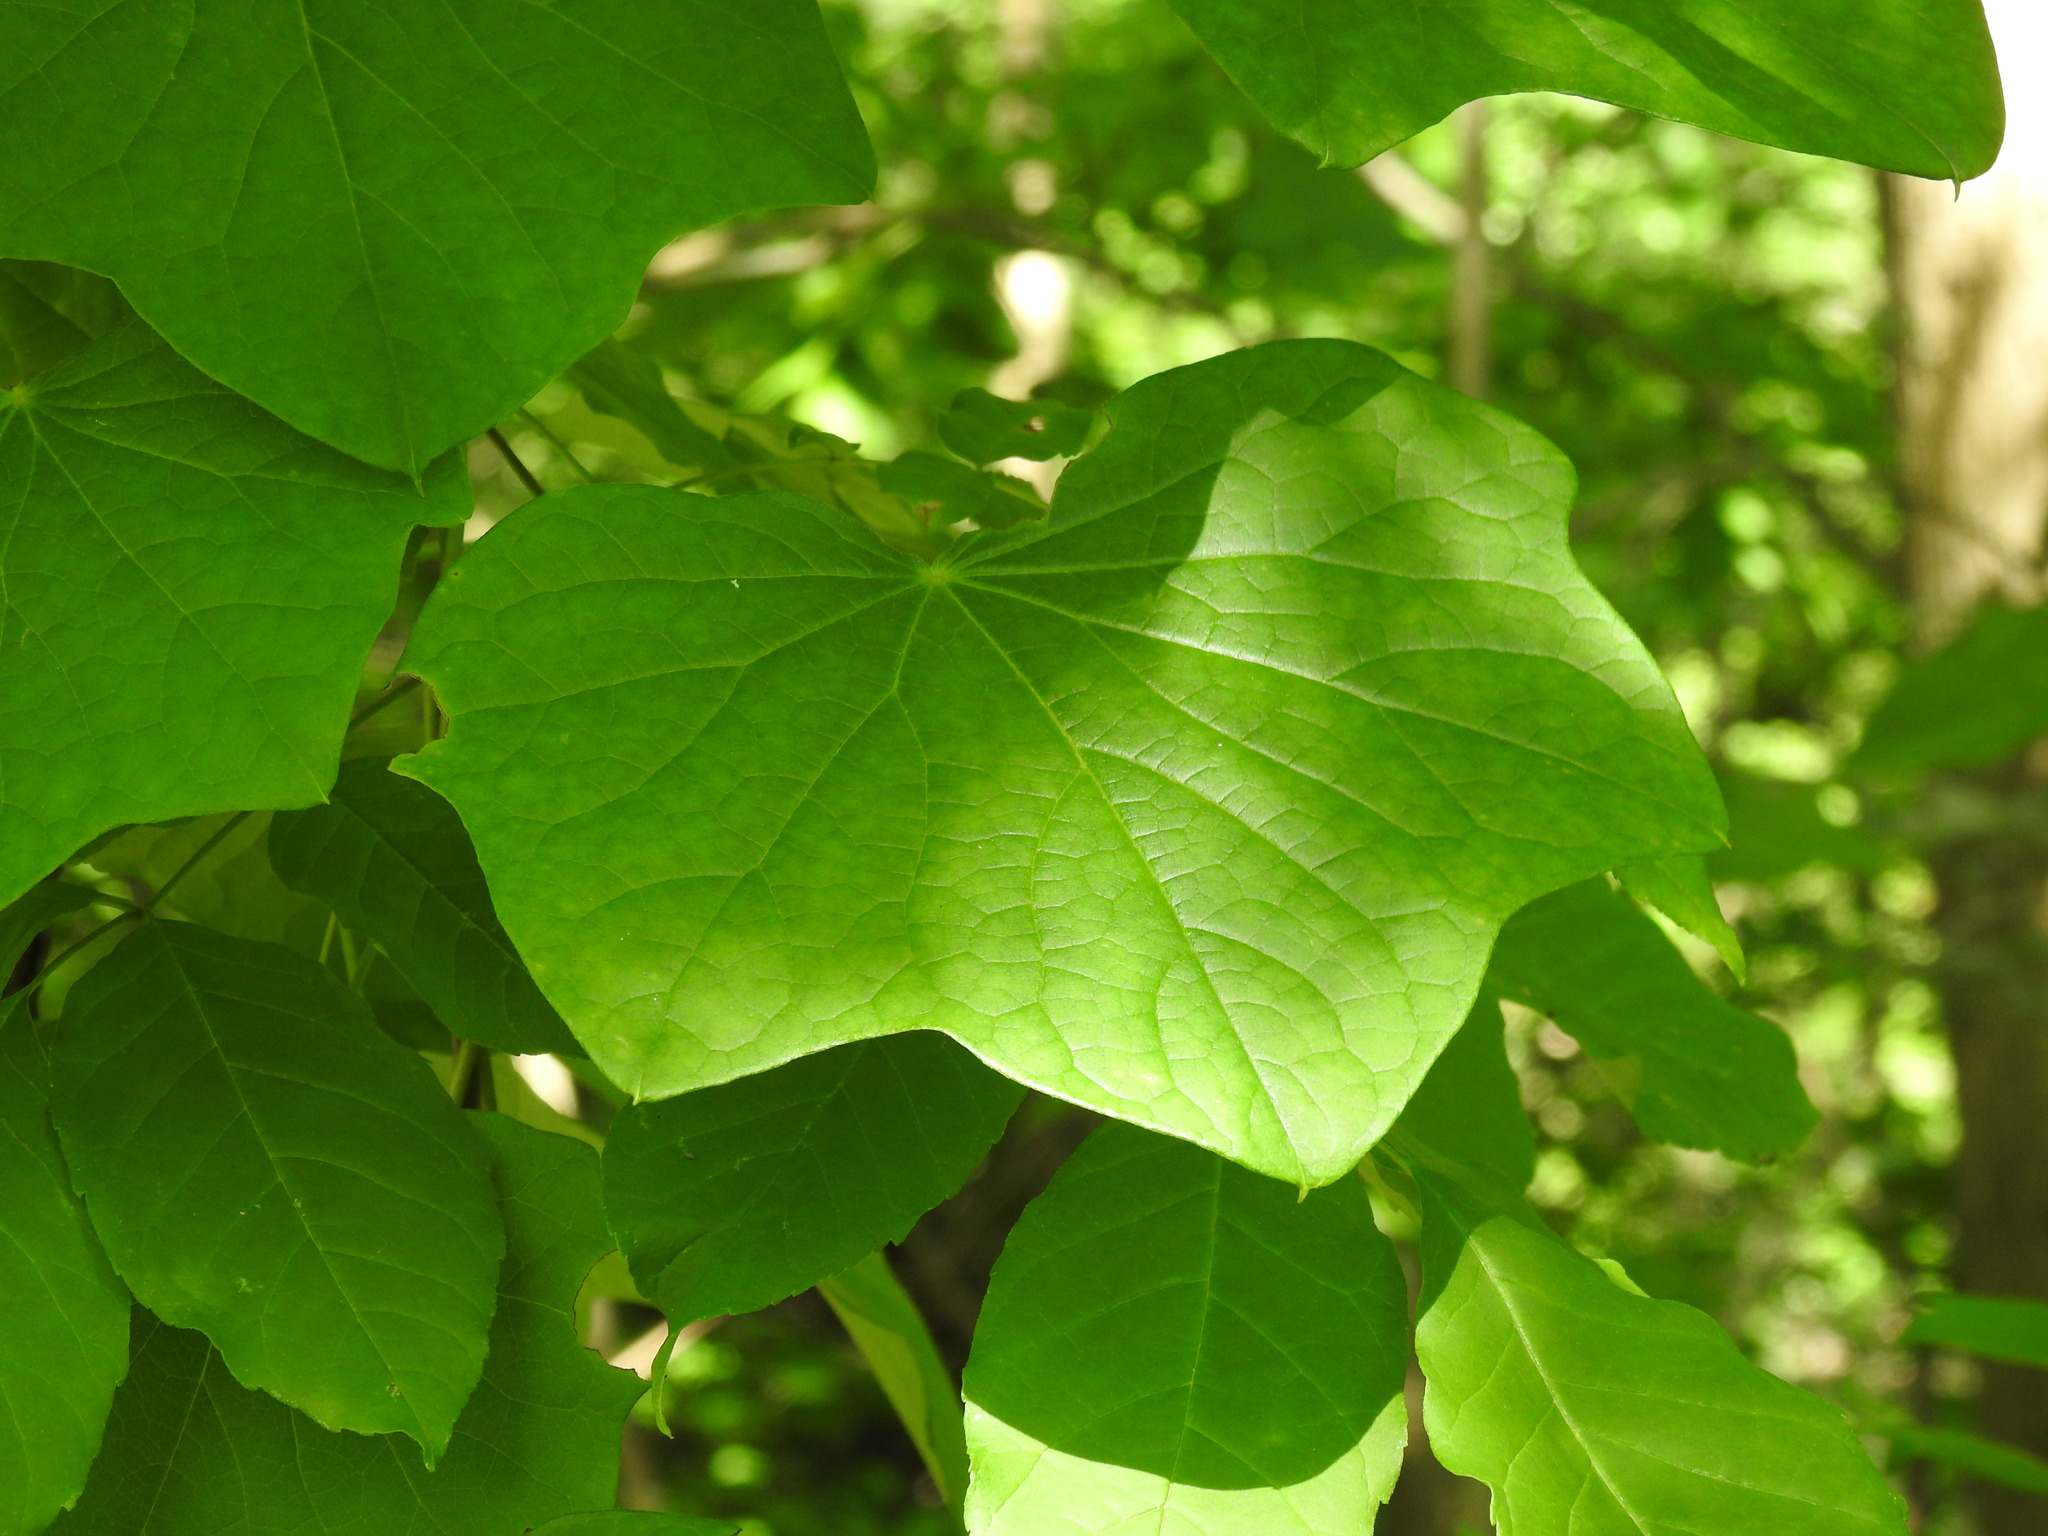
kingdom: Plantae
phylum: Tracheophyta
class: Magnoliopsida
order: Ranunculales
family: Menispermaceae
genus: Menispermum
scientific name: Menispermum canadense
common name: Moonseed
